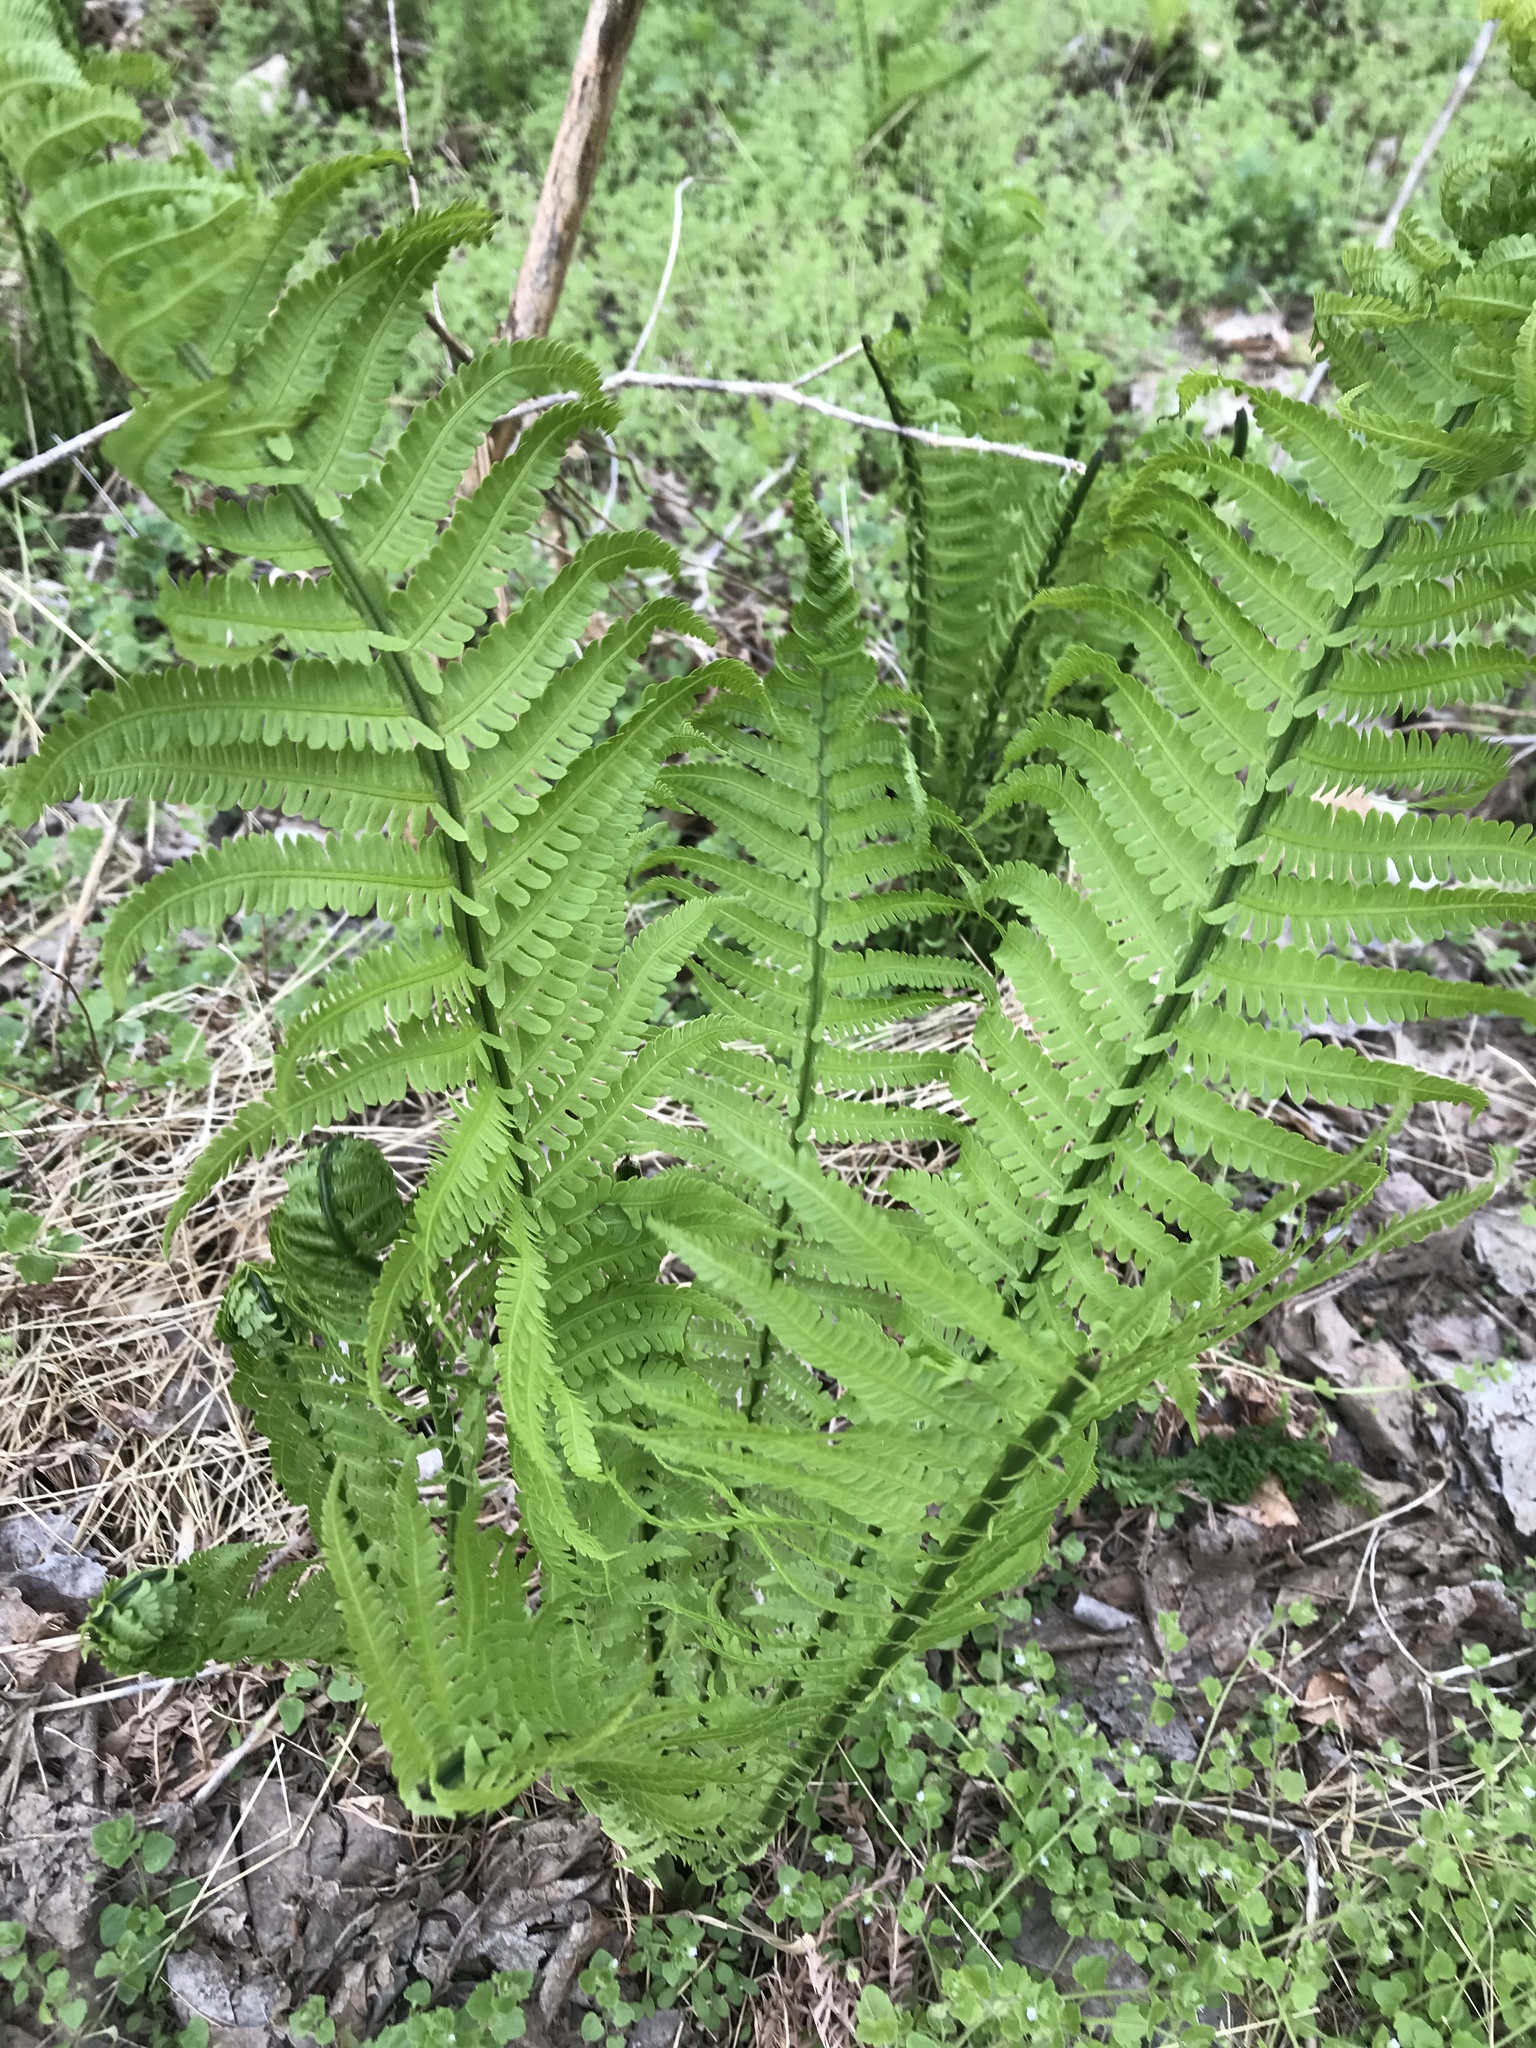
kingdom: Plantae
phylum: Tracheophyta
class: Polypodiopsida
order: Polypodiales
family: Onocleaceae
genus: Matteuccia
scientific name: Matteuccia struthiopteris
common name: Ostrich fern
